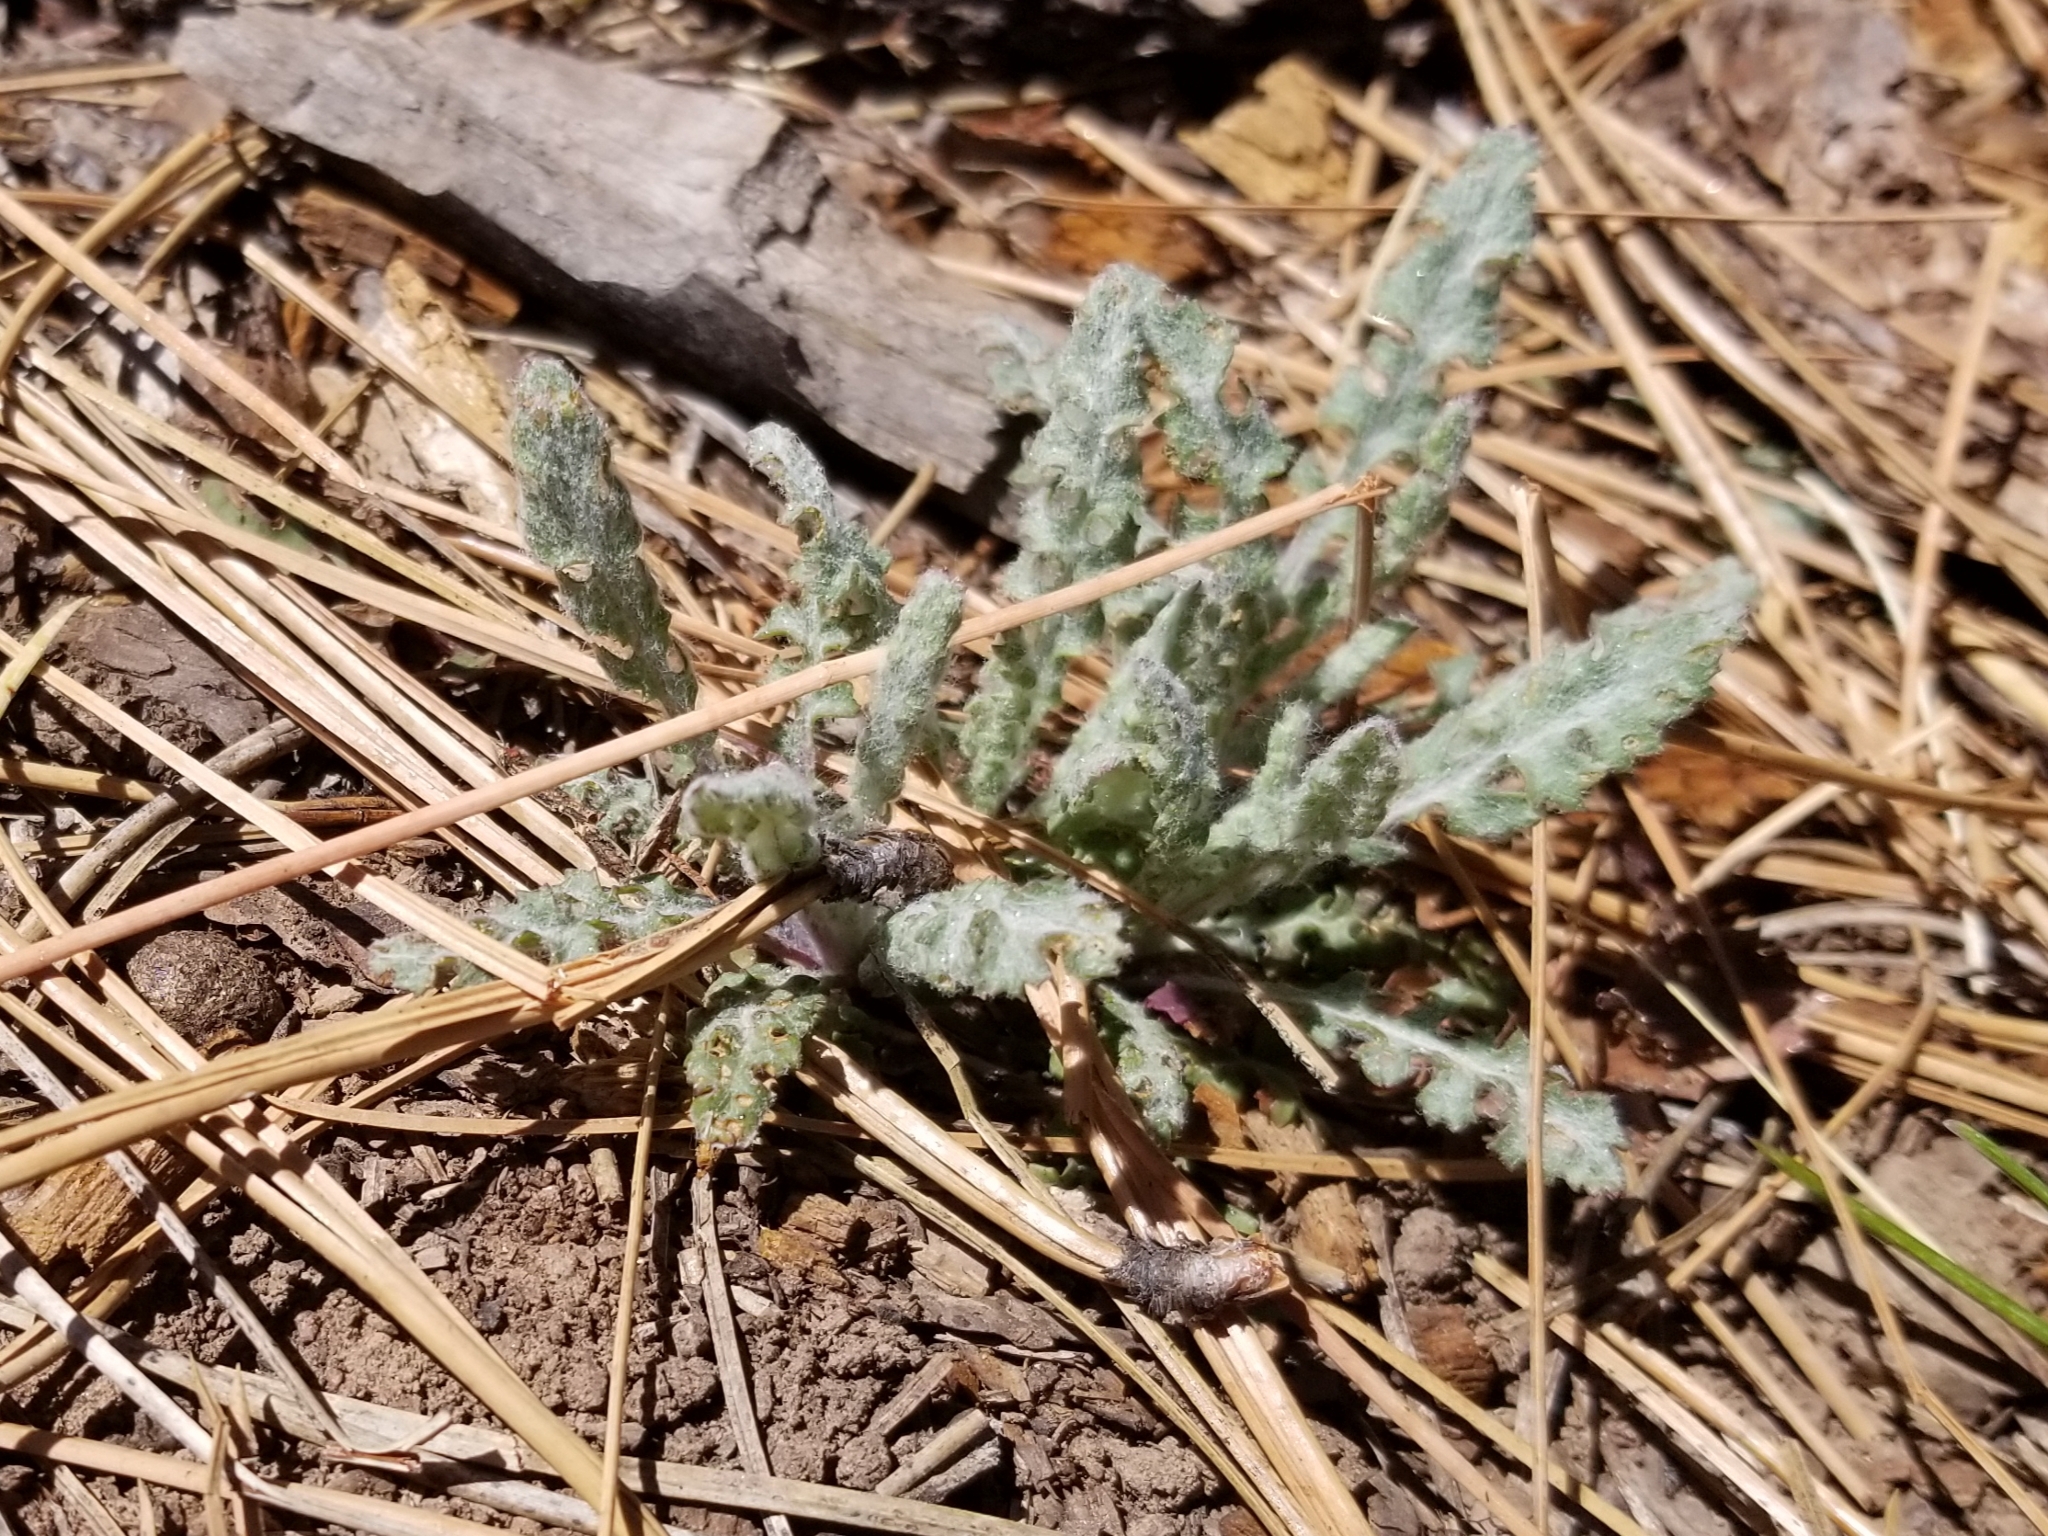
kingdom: Plantae
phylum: Tracheophyta
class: Magnoliopsida
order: Asterales
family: Asteraceae
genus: Packera
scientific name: Packera multilobata
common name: Lobe-leaf groundsel
